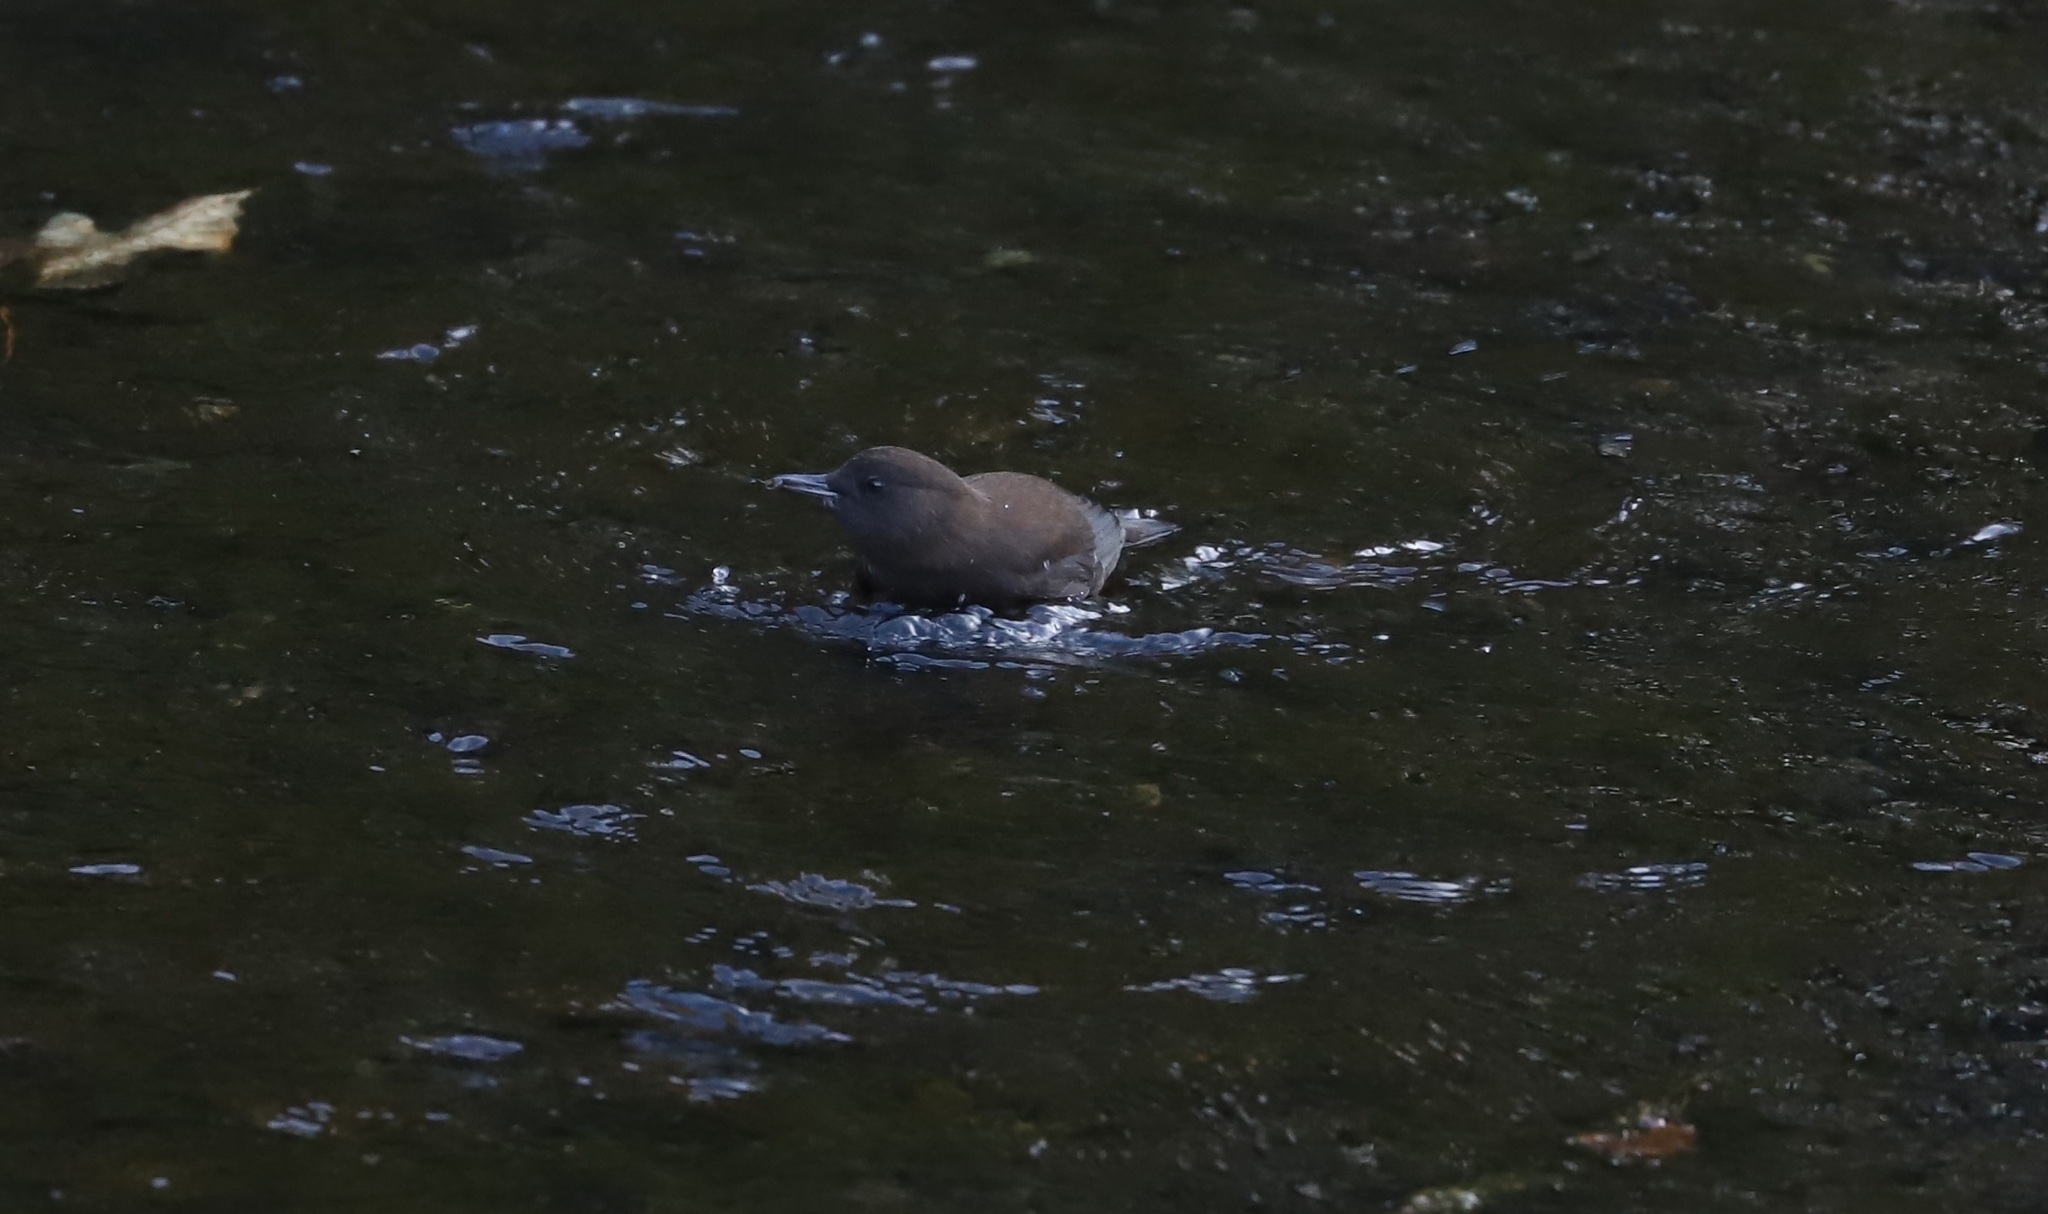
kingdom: Animalia
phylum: Chordata
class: Aves
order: Passeriformes
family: Cinclidae
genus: Cinclus
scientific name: Cinclus pallasii
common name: Brown dipper
